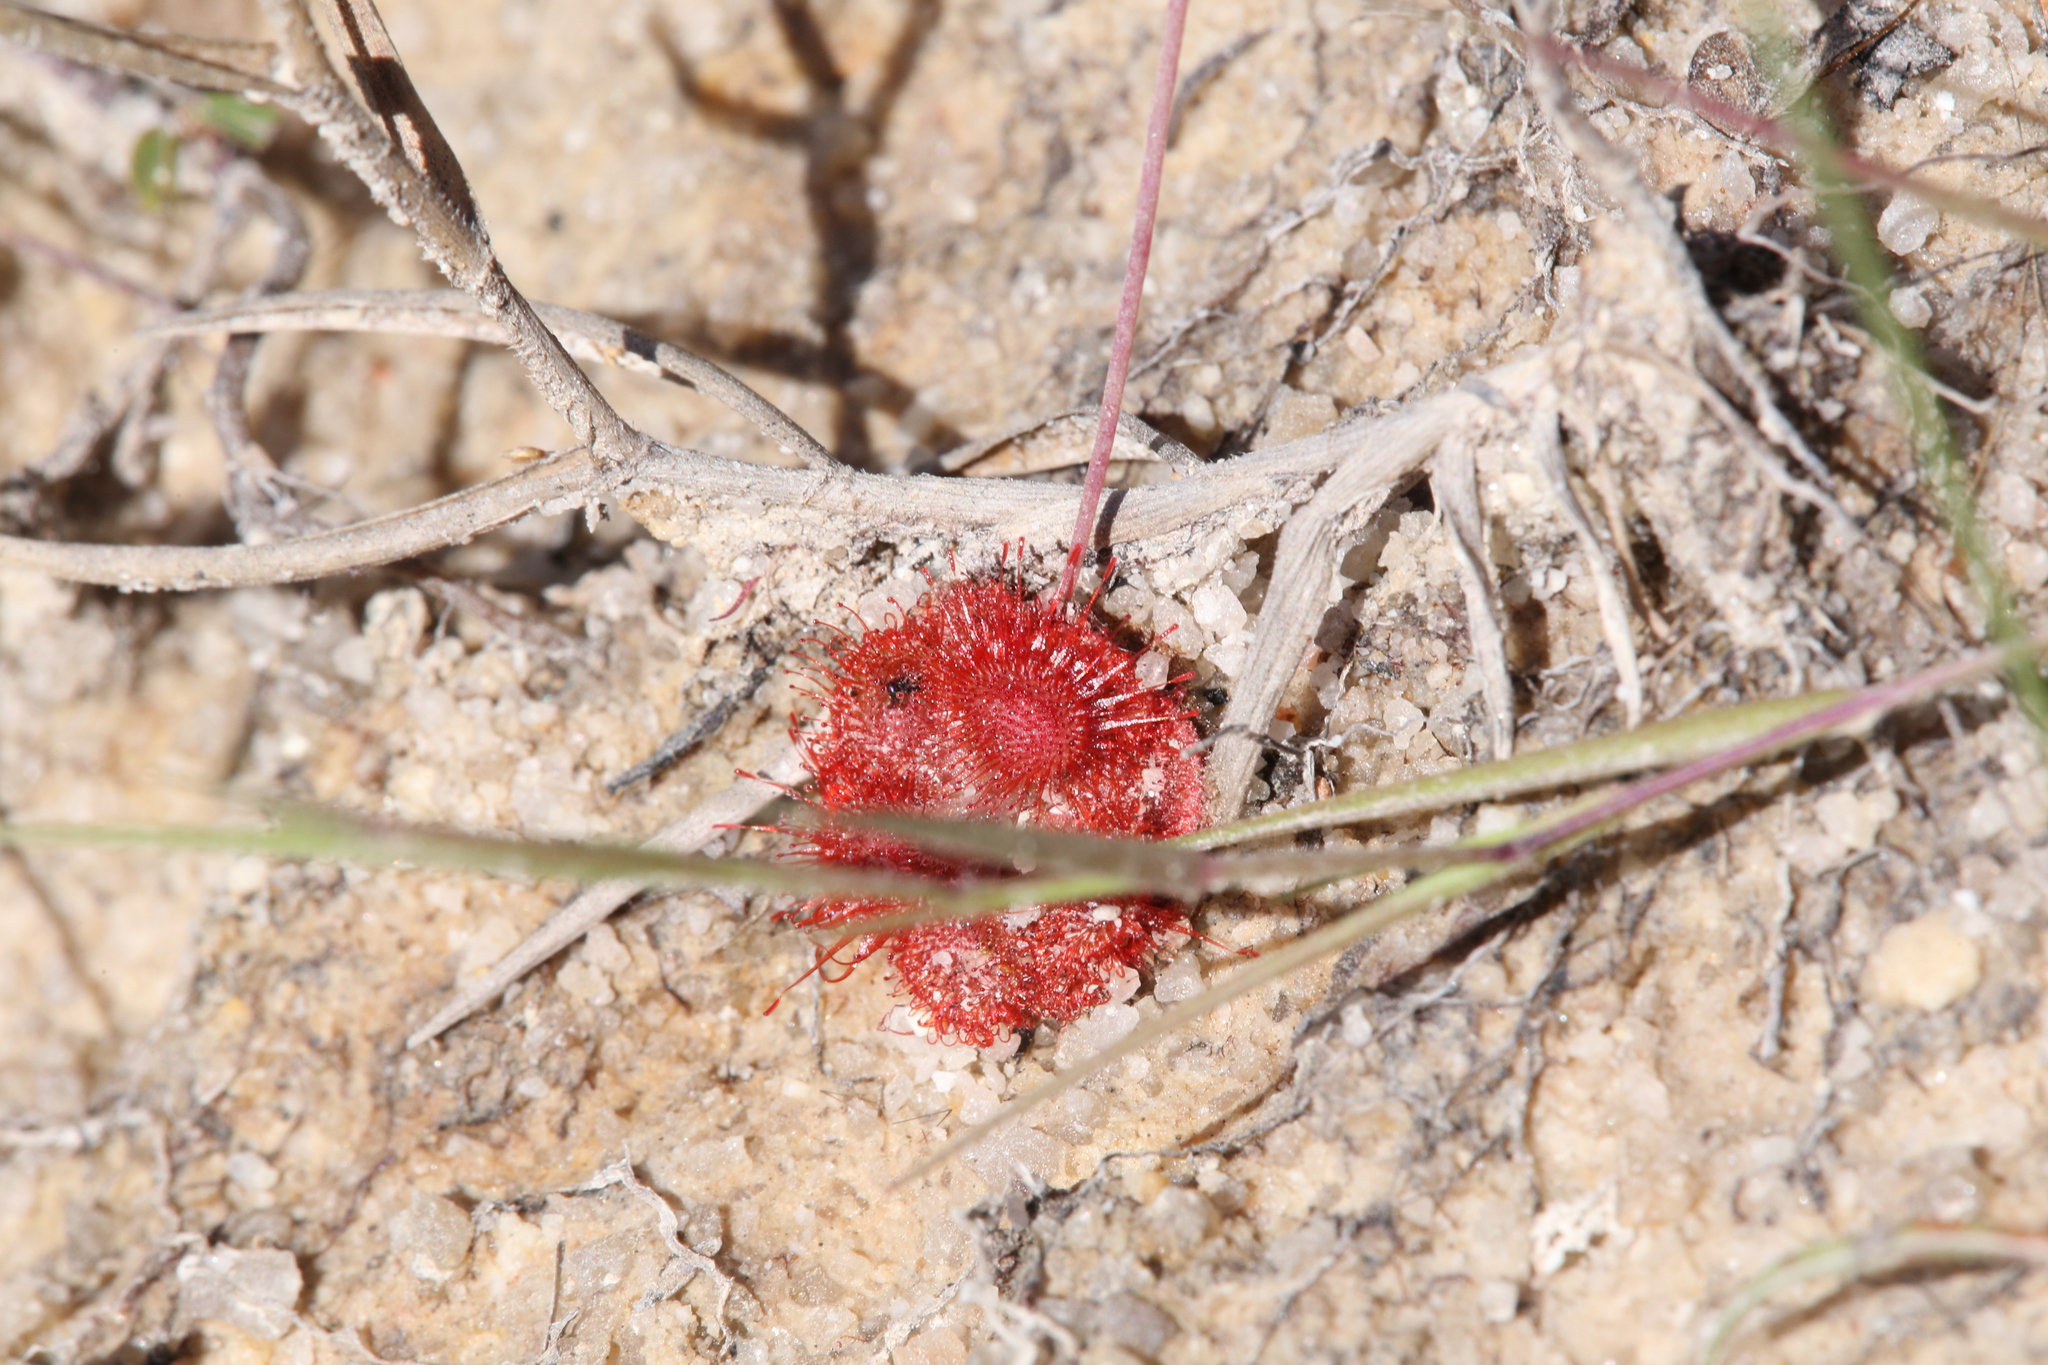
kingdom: Plantae
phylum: Tracheophyta
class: Magnoliopsida
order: Caryophyllales
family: Droseraceae
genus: Drosera
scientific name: Drosera spatulata
